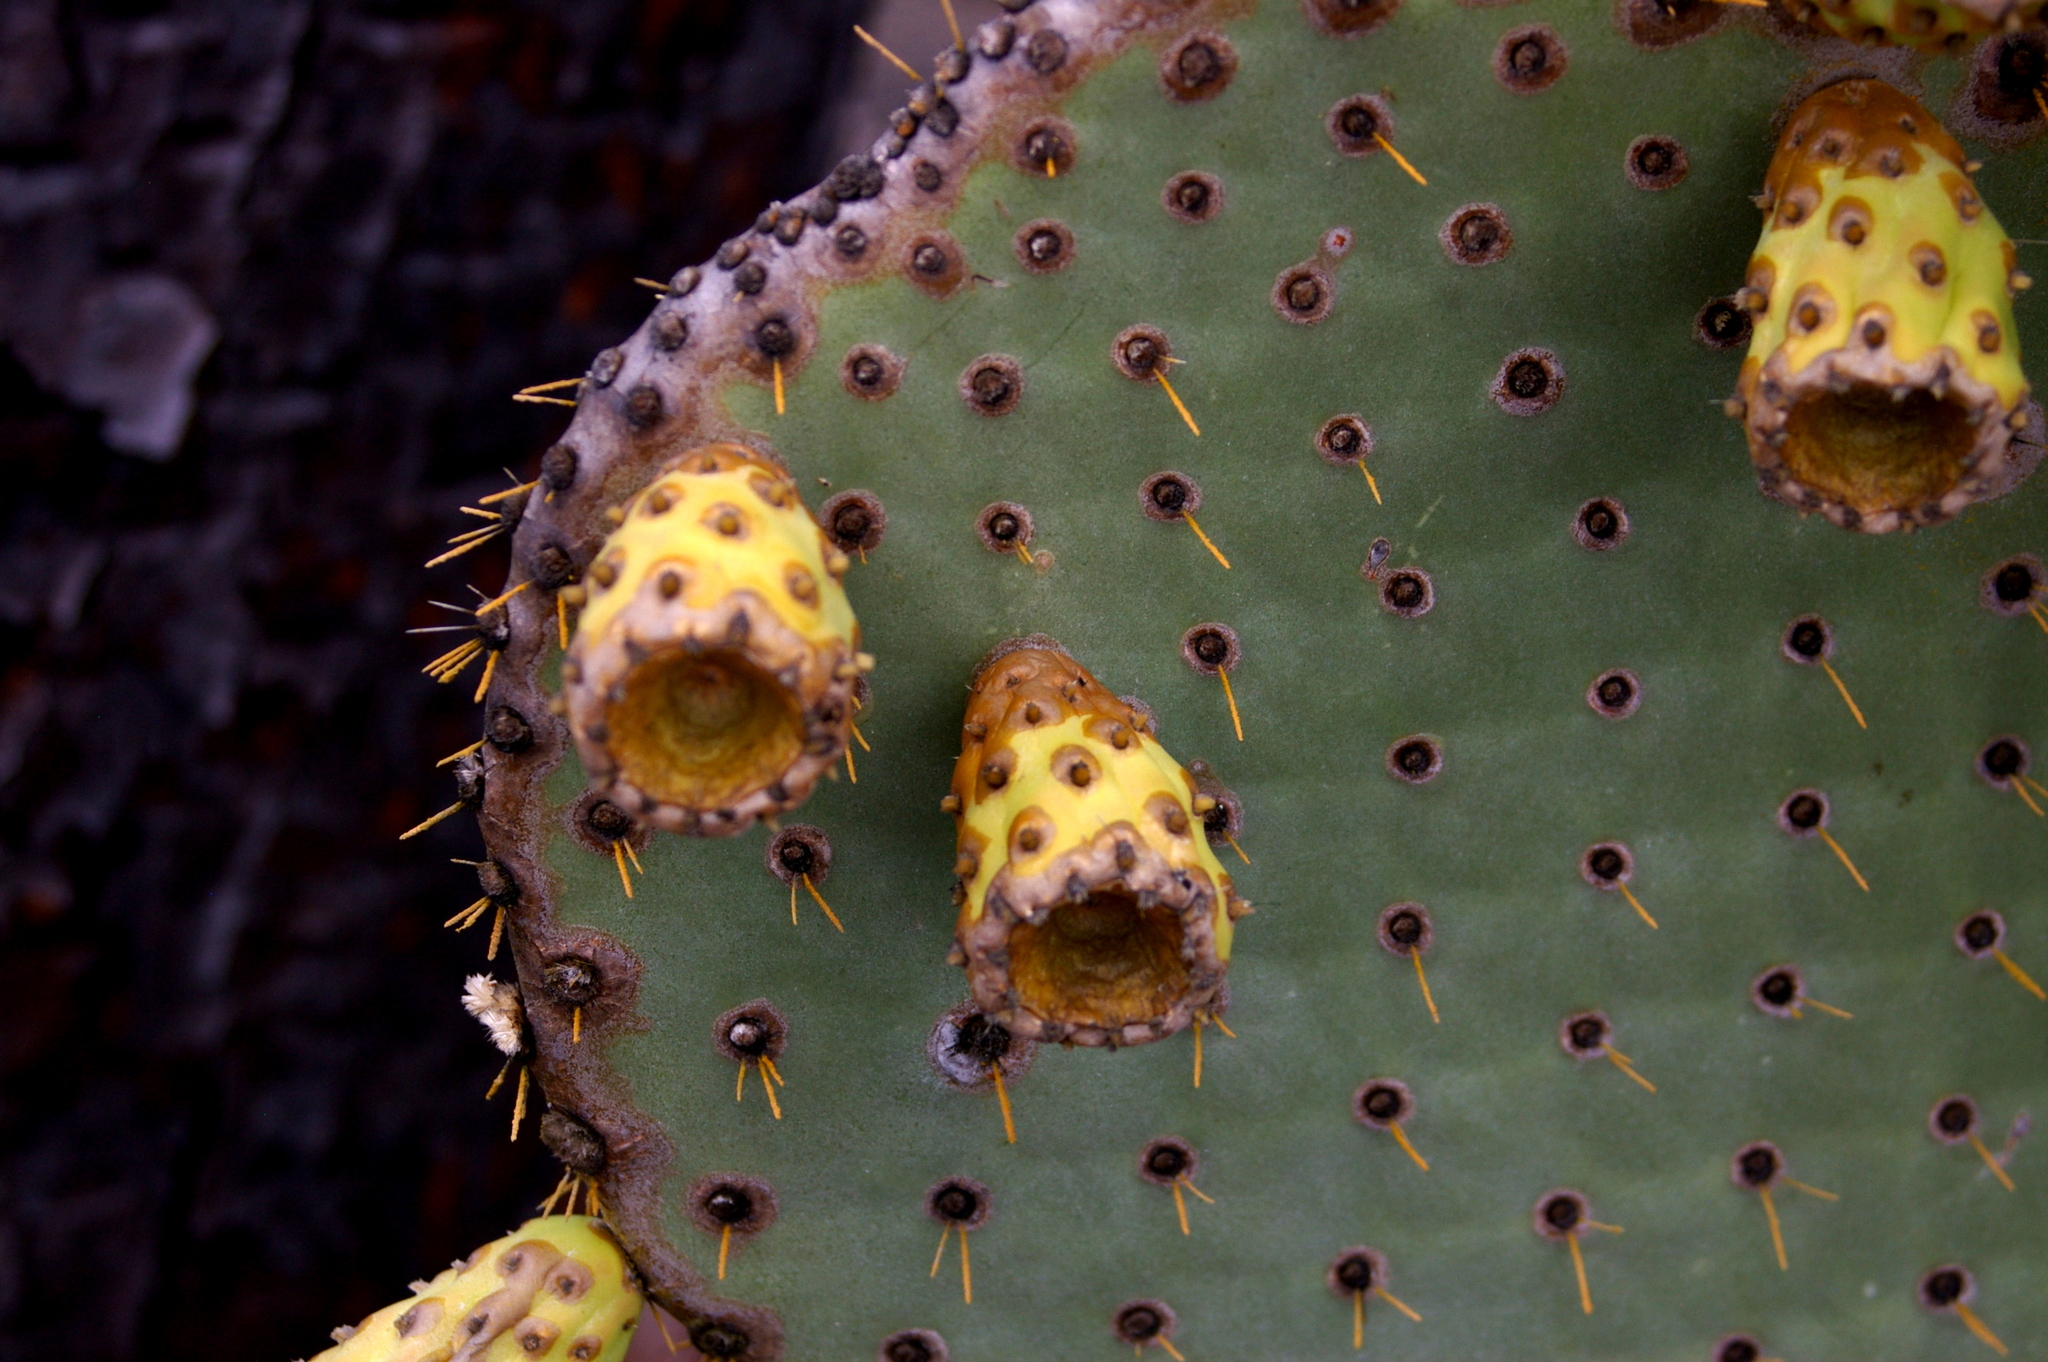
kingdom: Plantae
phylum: Tracheophyta
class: Magnoliopsida
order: Caryophyllales
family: Cactaceae
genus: Opuntia
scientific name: Opuntia galapageia
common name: Galápagos prickly pear
